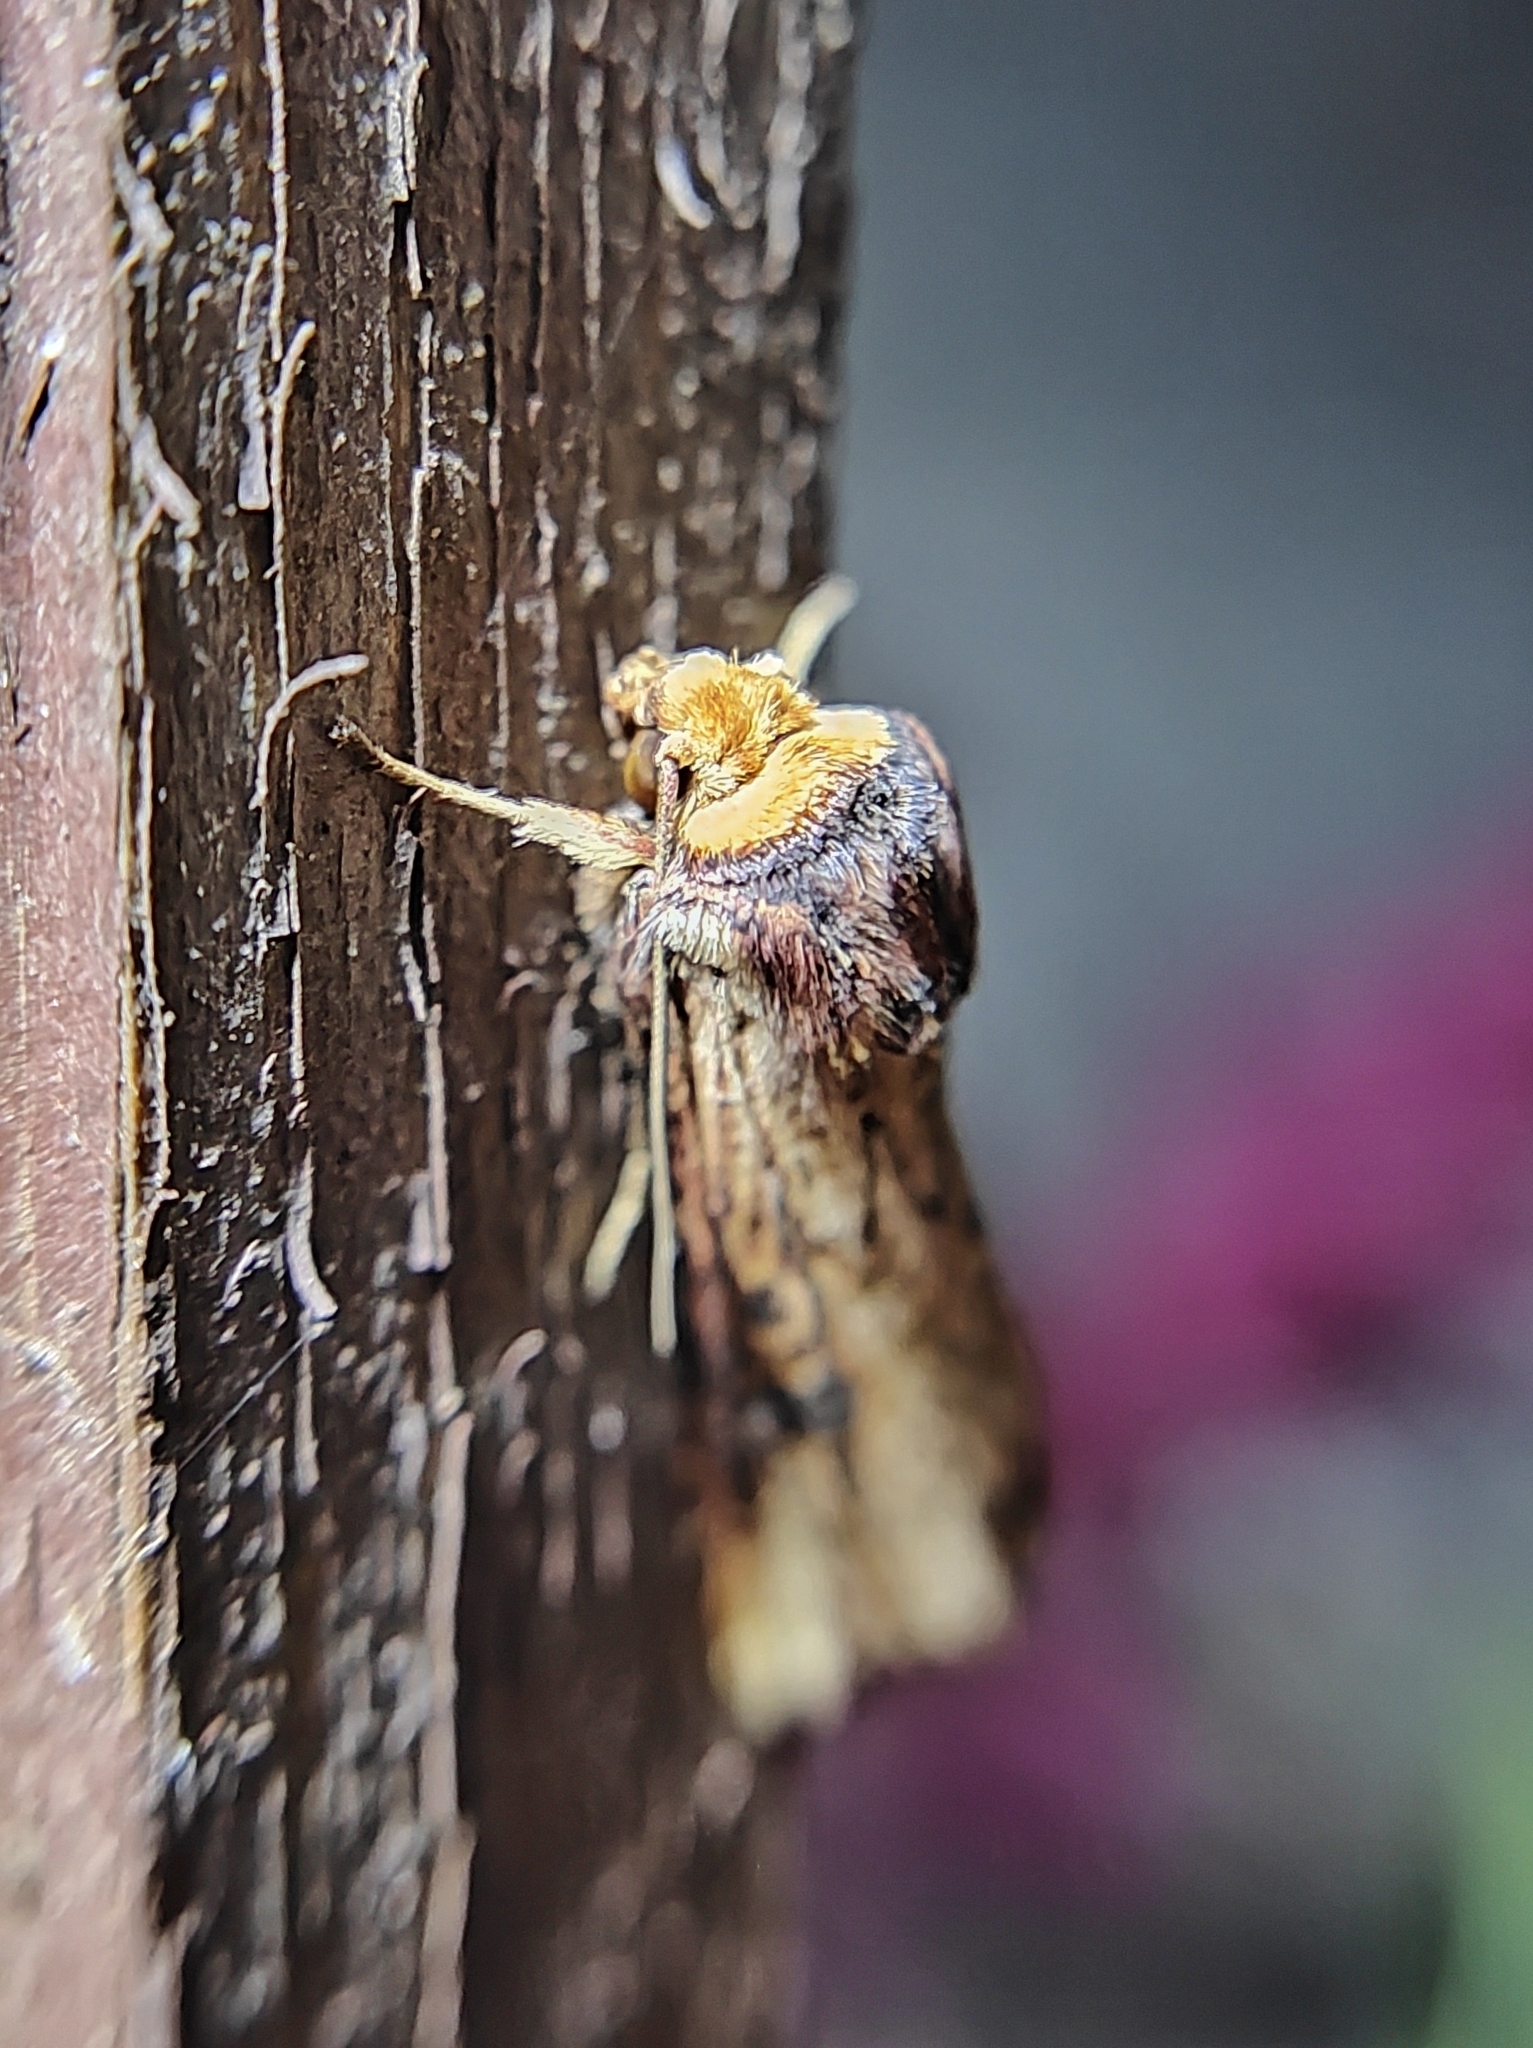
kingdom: Animalia
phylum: Arthropoda
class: Insecta
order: Lepidoptera
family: Noctuidae
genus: Axylia
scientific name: Axylia putris
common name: Flame
